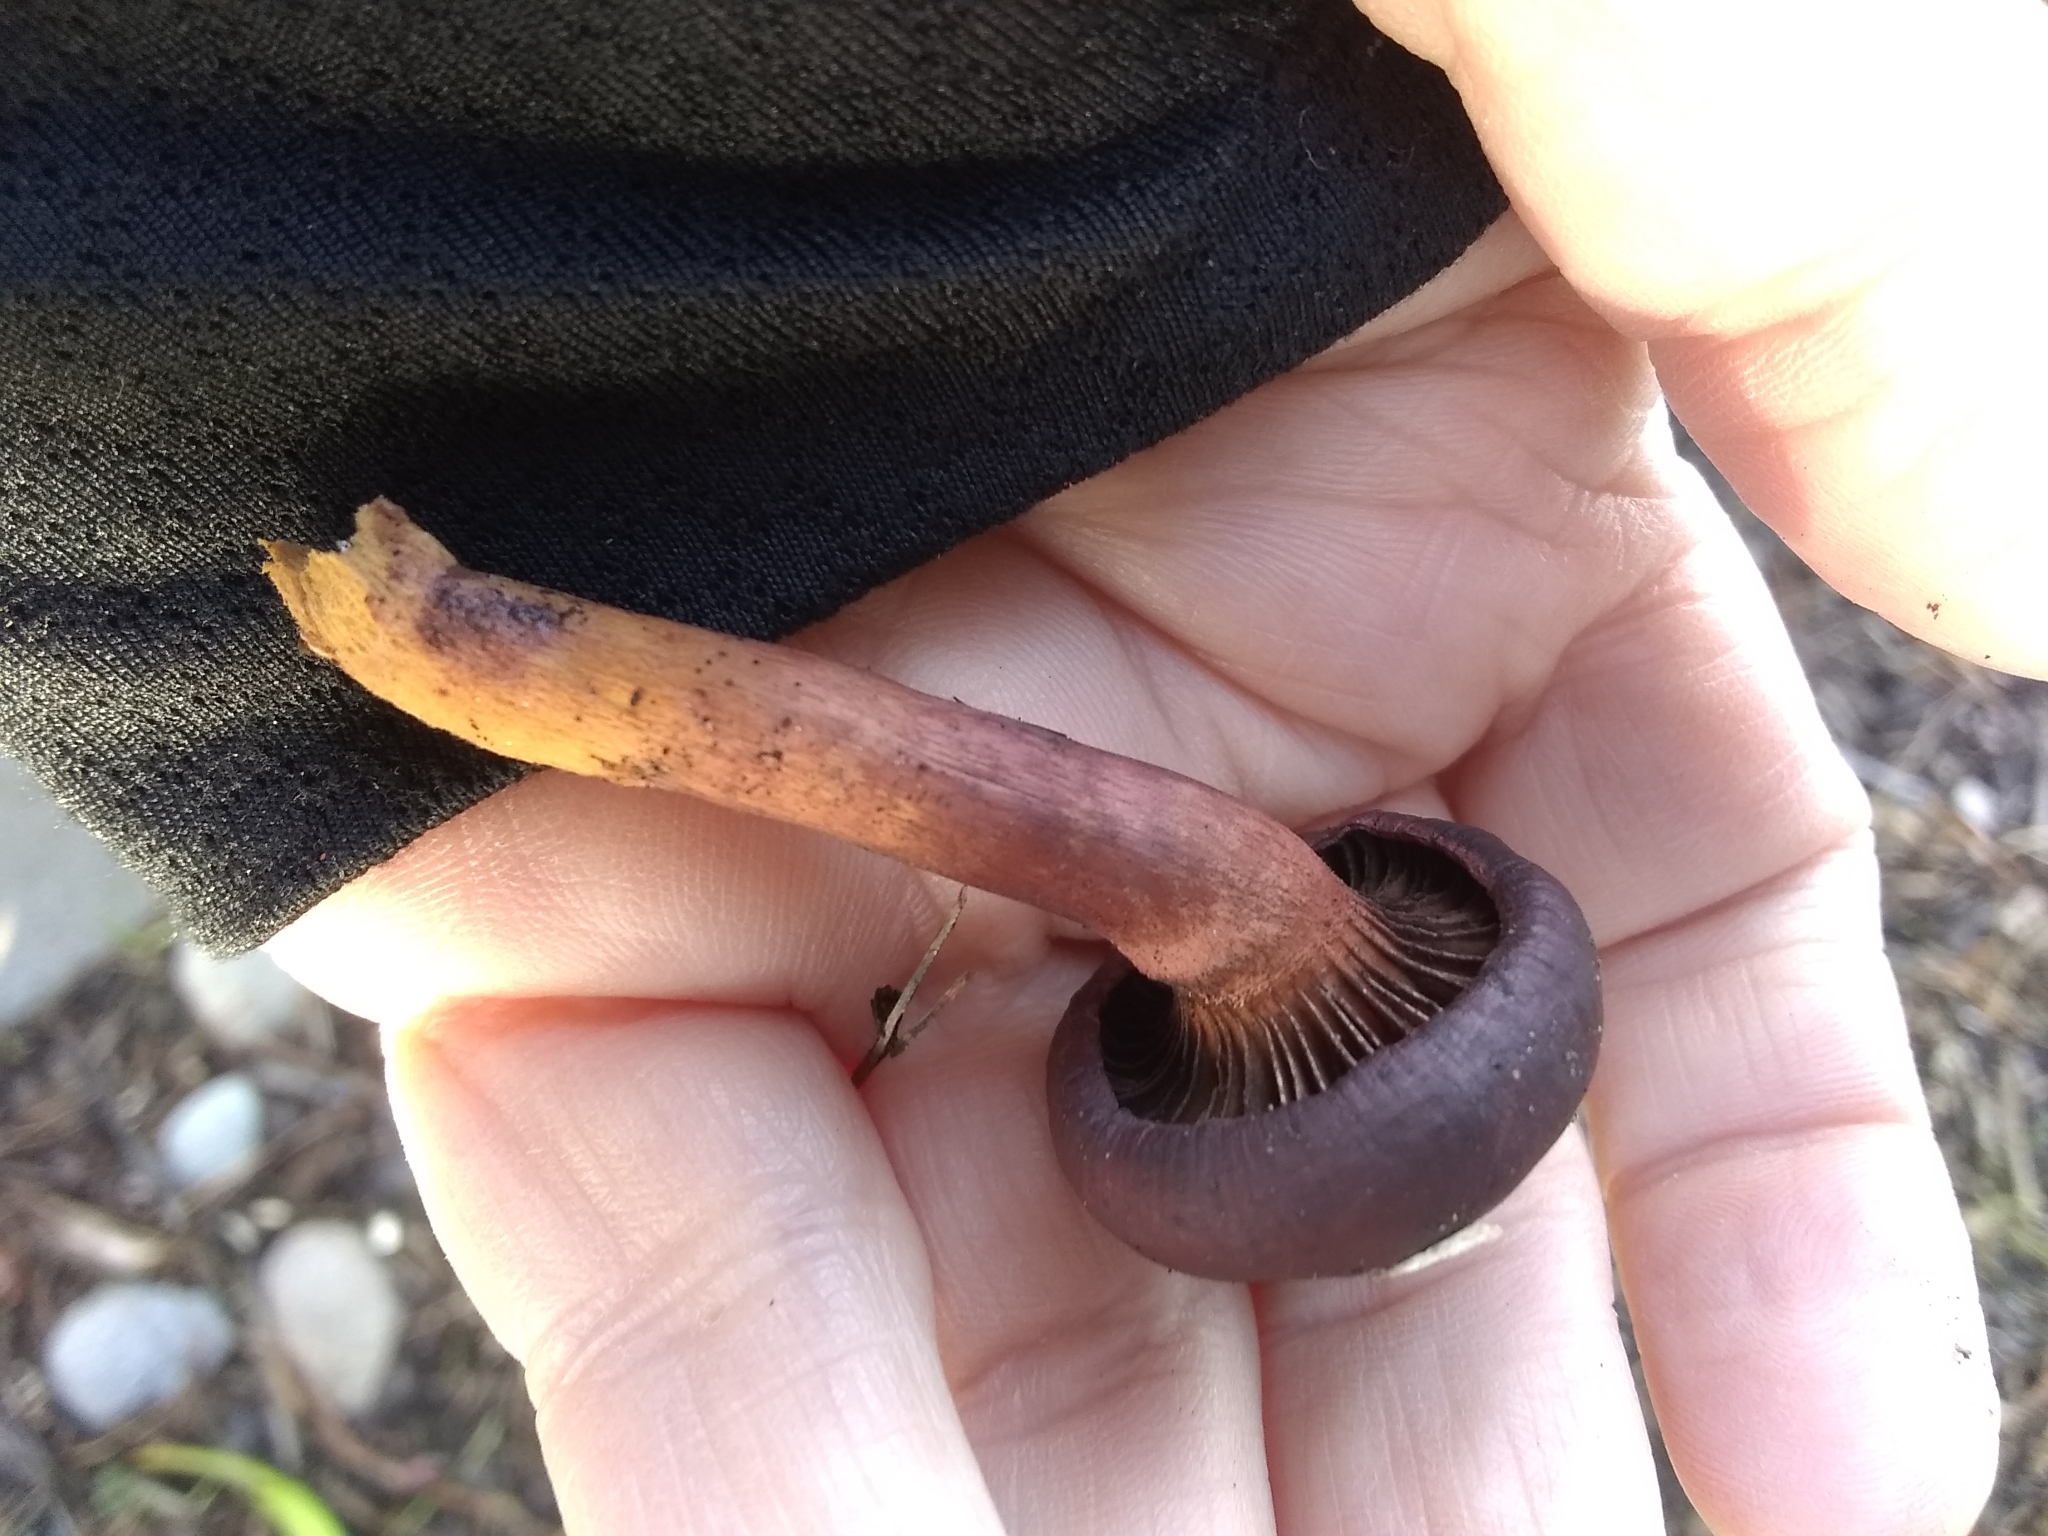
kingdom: Fungi
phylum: Basidiomycota
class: Agaricomycetes
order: Boletales
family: Gomphidiaceae
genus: Chroogomphus
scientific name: Chroogomphus vinicolor
